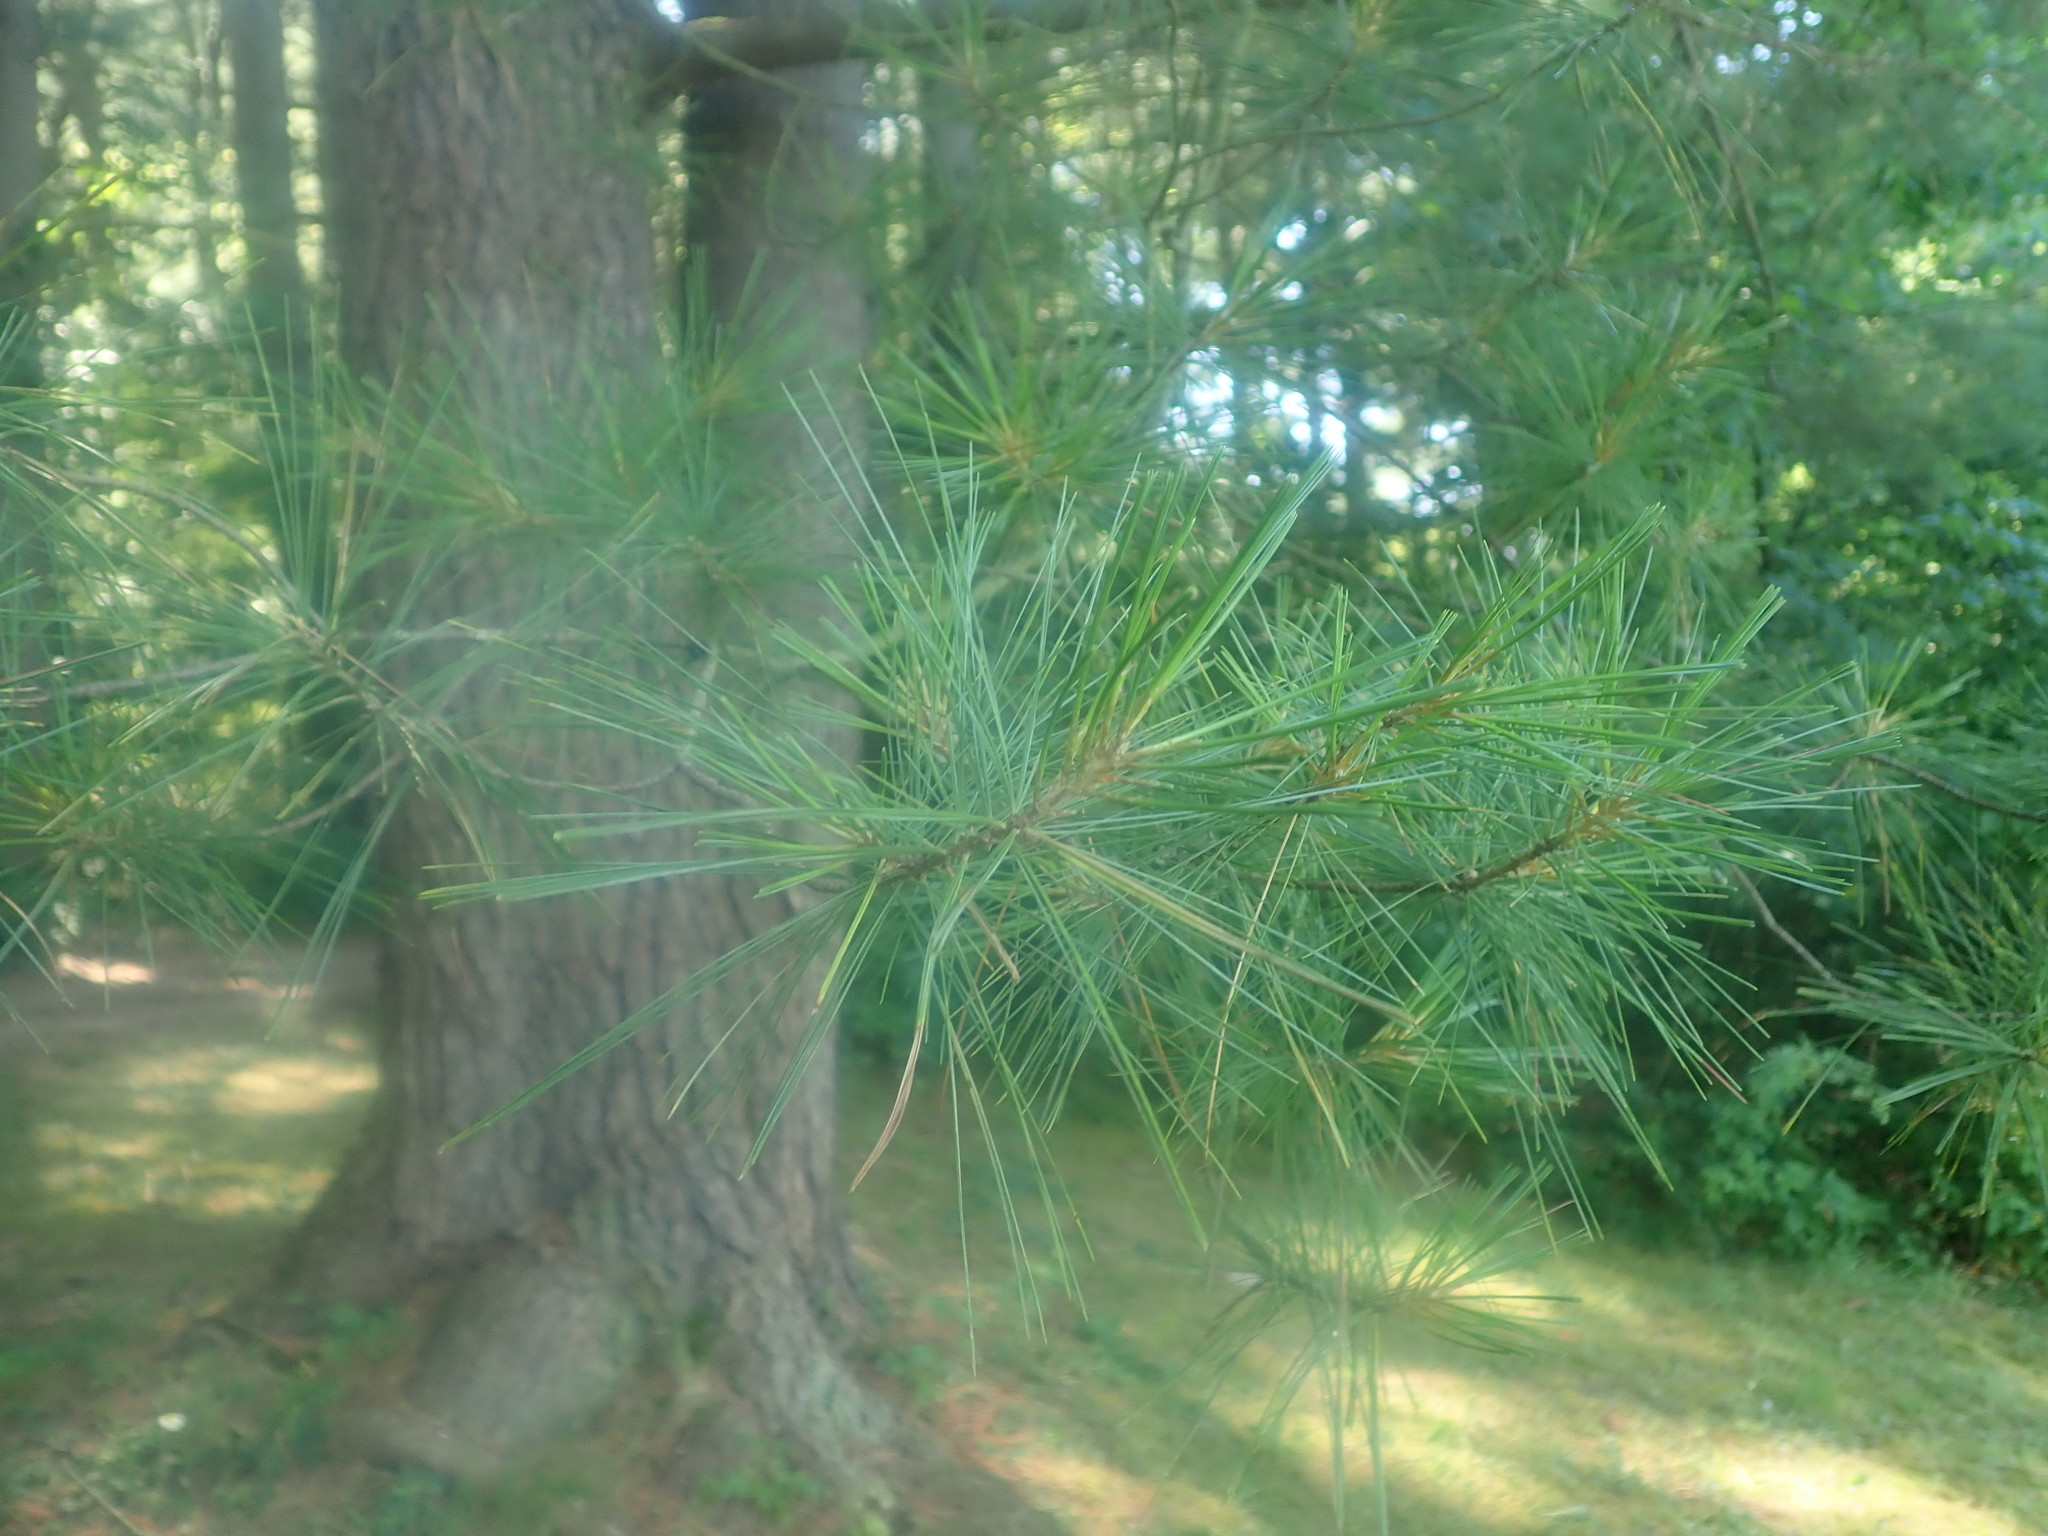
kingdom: Plantae
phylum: Tracheophyta
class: Pinopsida
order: Pinales
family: Pinaceae
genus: Pinus
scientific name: Pinus strobus
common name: Weymouth pine
